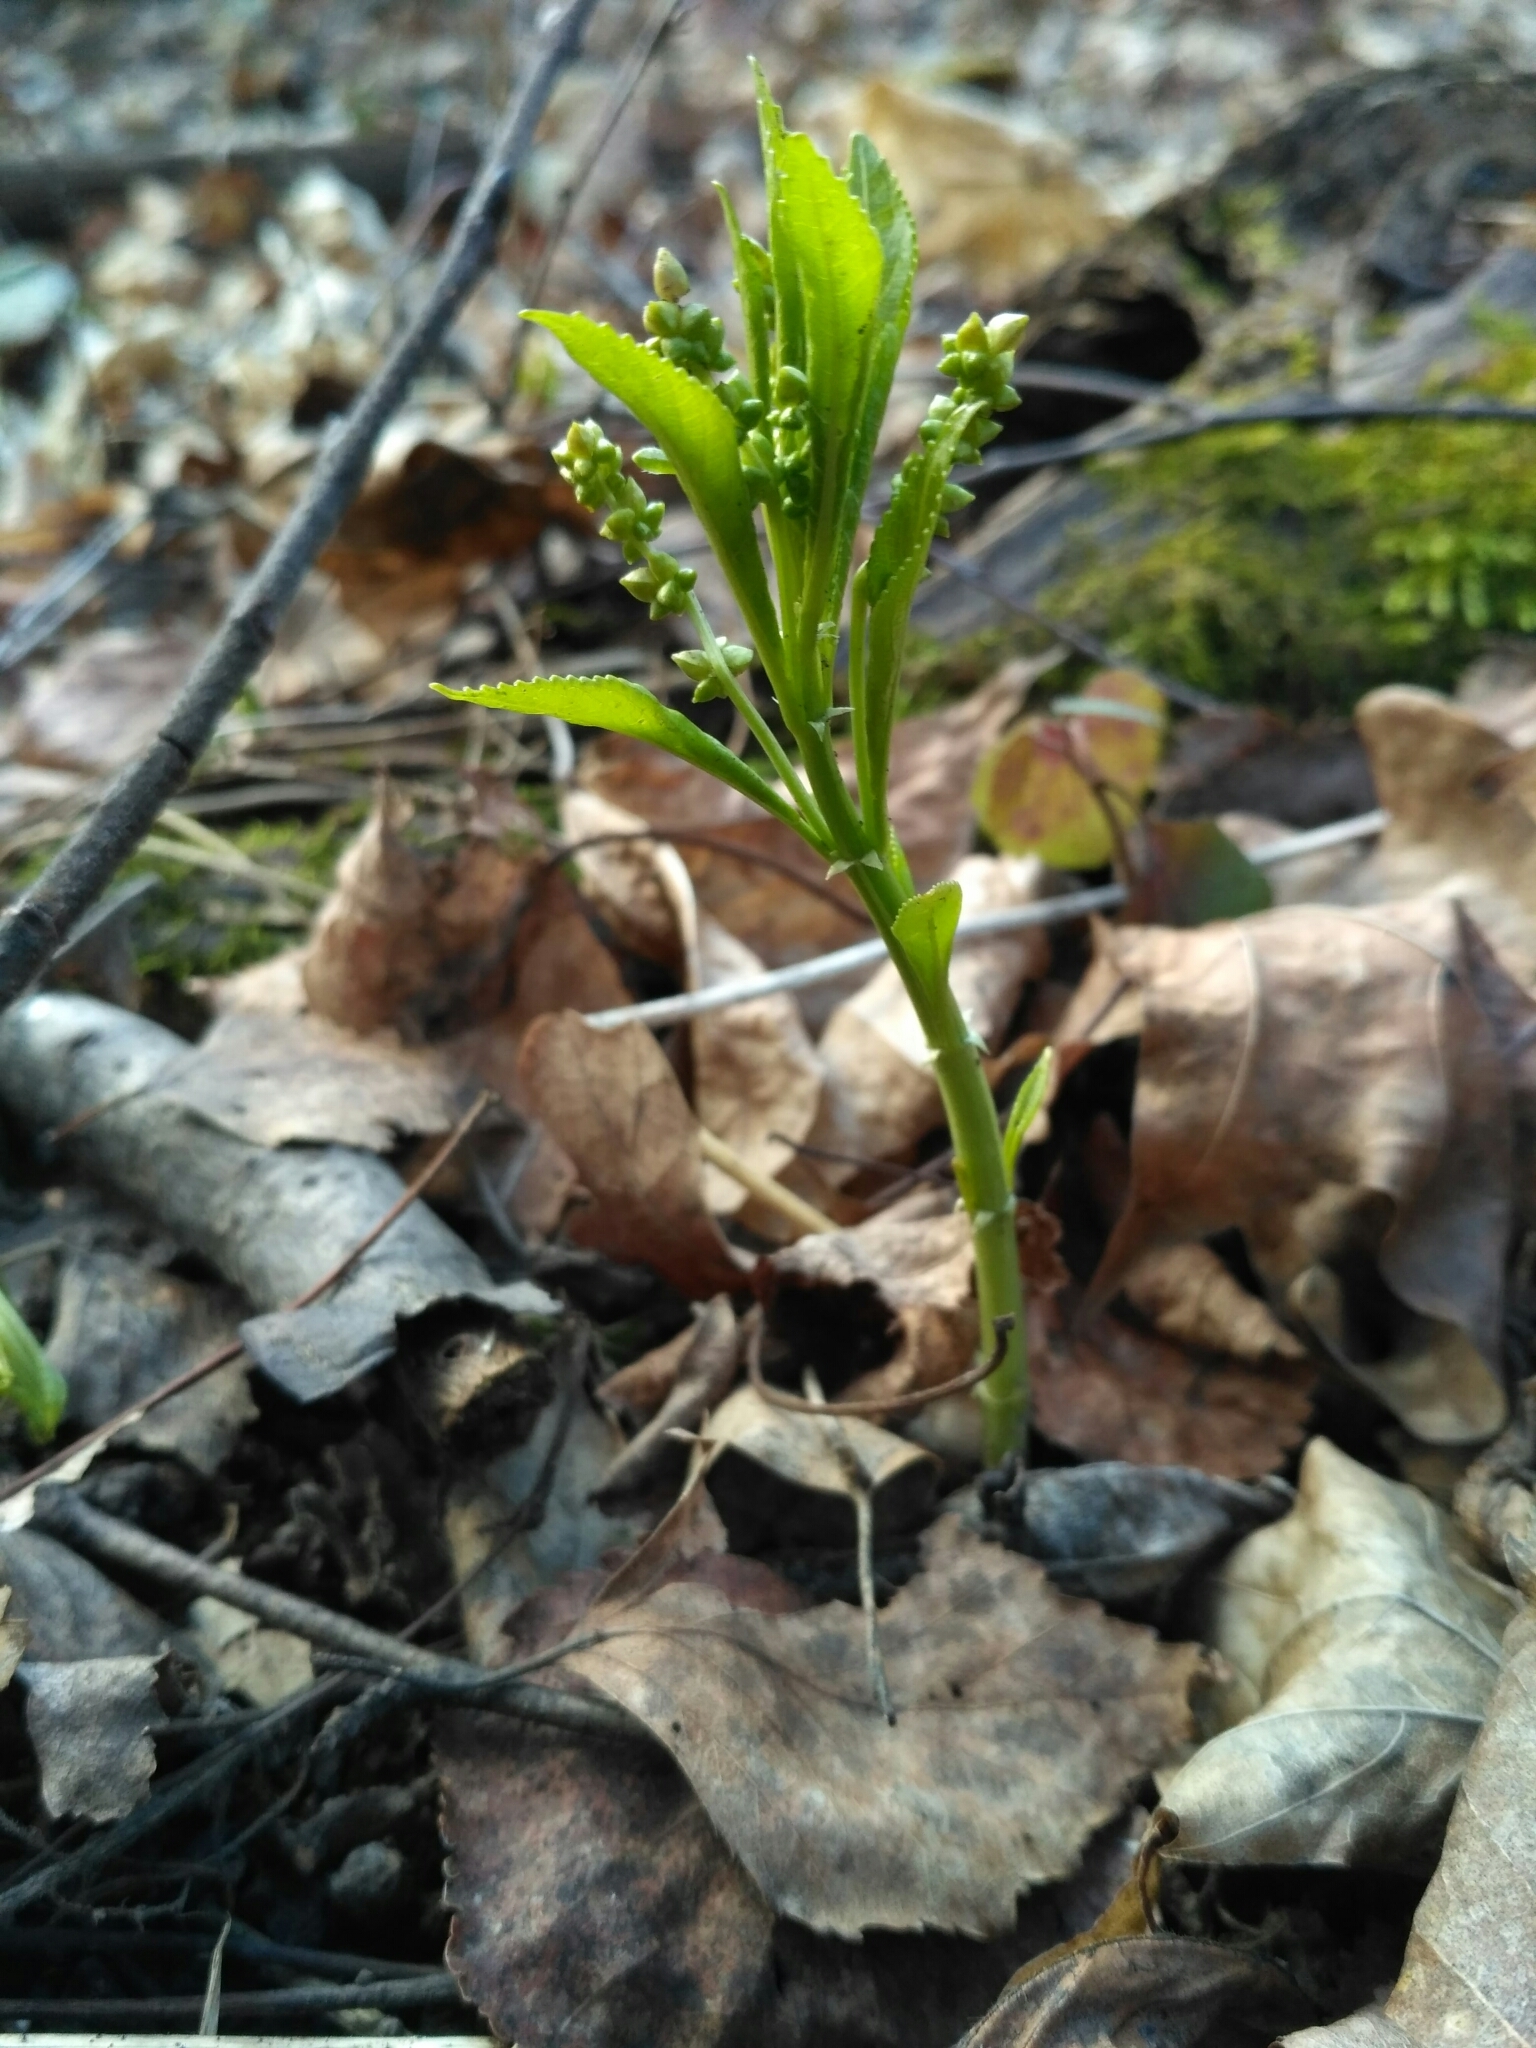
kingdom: Plantae
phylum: Tracheophyta
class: Magnoliopsida
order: Malpighiales
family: Euphorbiaceae
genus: Mercurialis
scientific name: Mercurialis perennis
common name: Dog mercury
